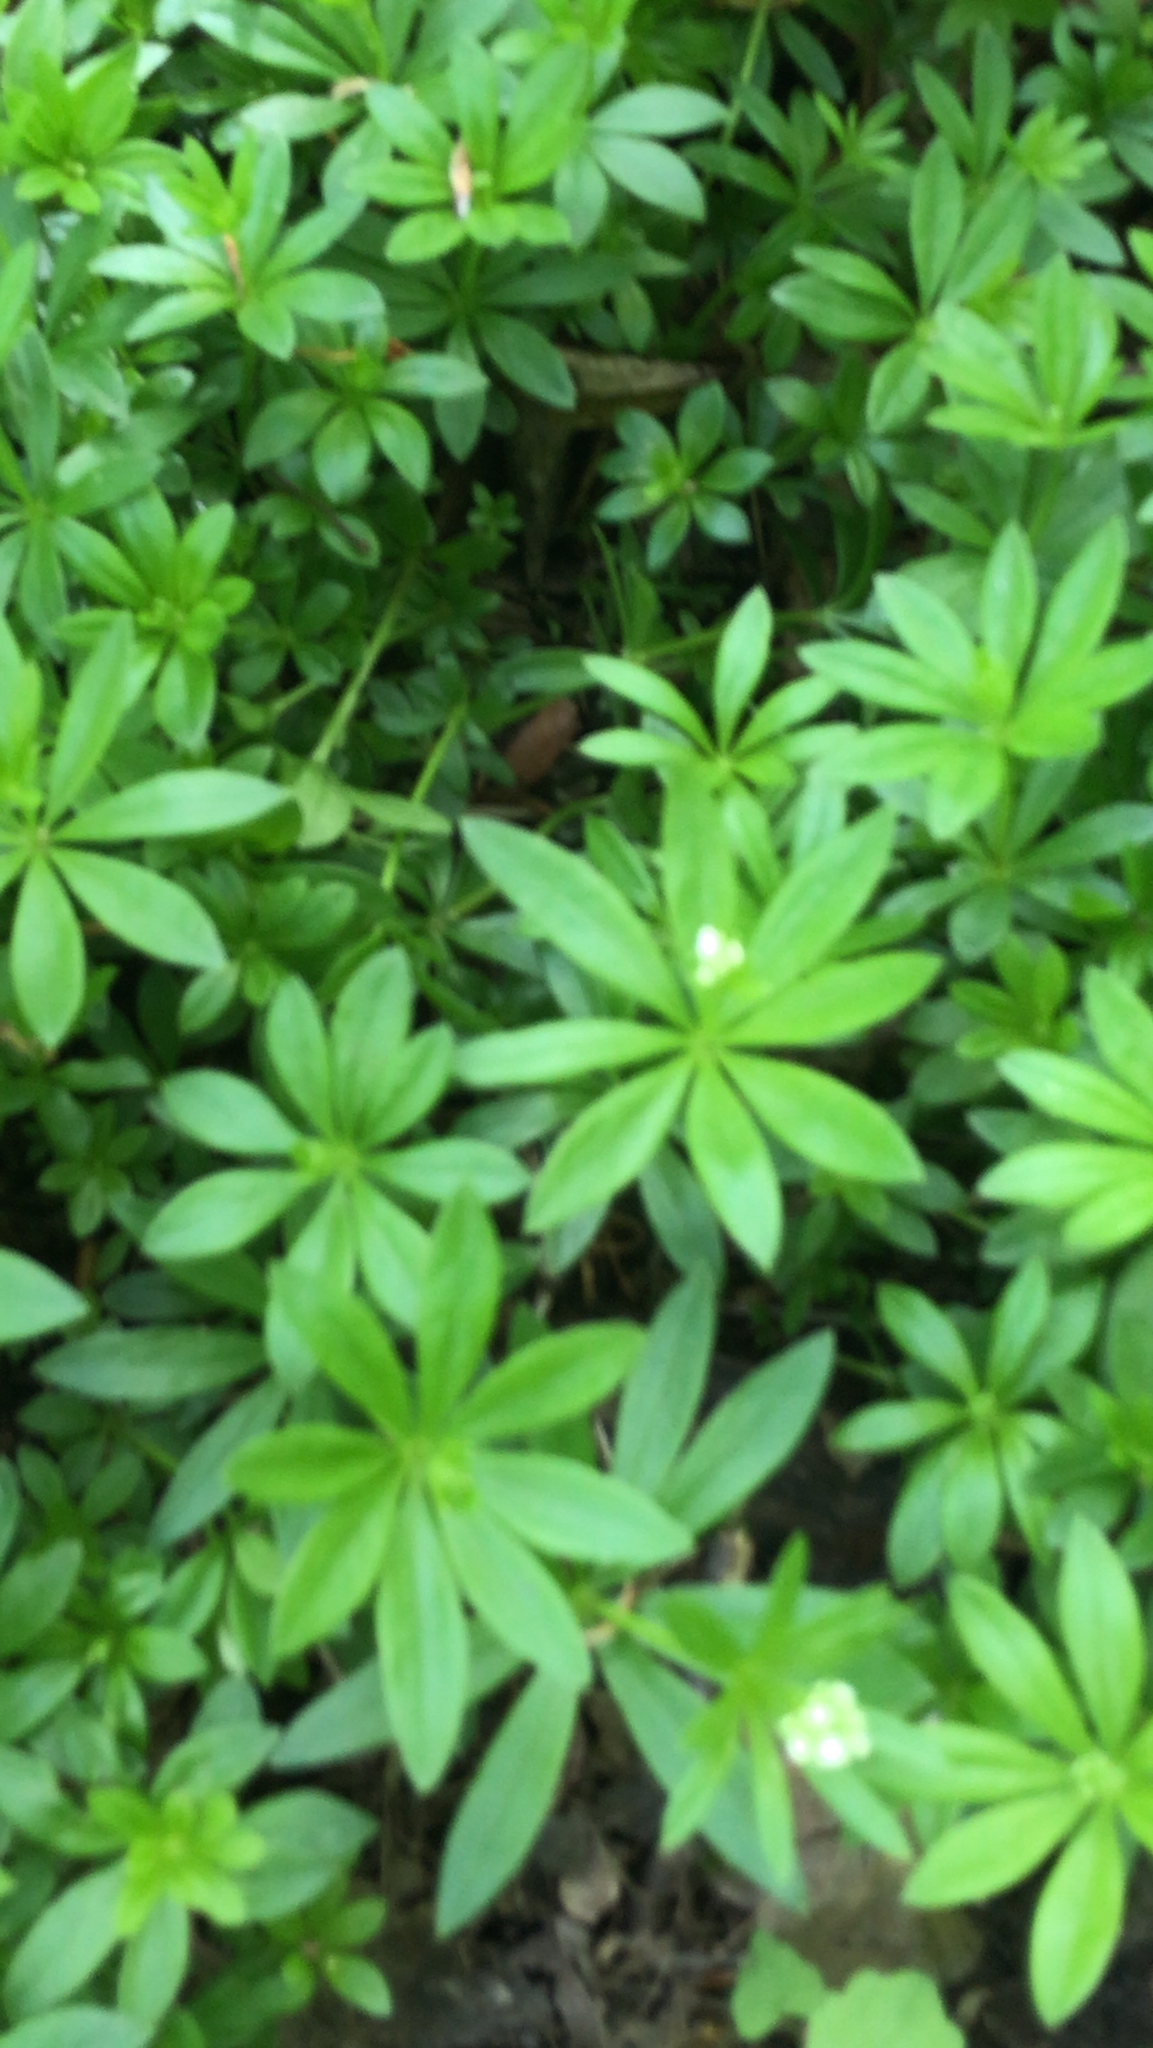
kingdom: Plantae
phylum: Tracheophyta
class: Magnoliopsida
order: Gentianales
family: Rubiaceae
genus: Galium
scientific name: Galium odoratum
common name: Sweet woodruff
